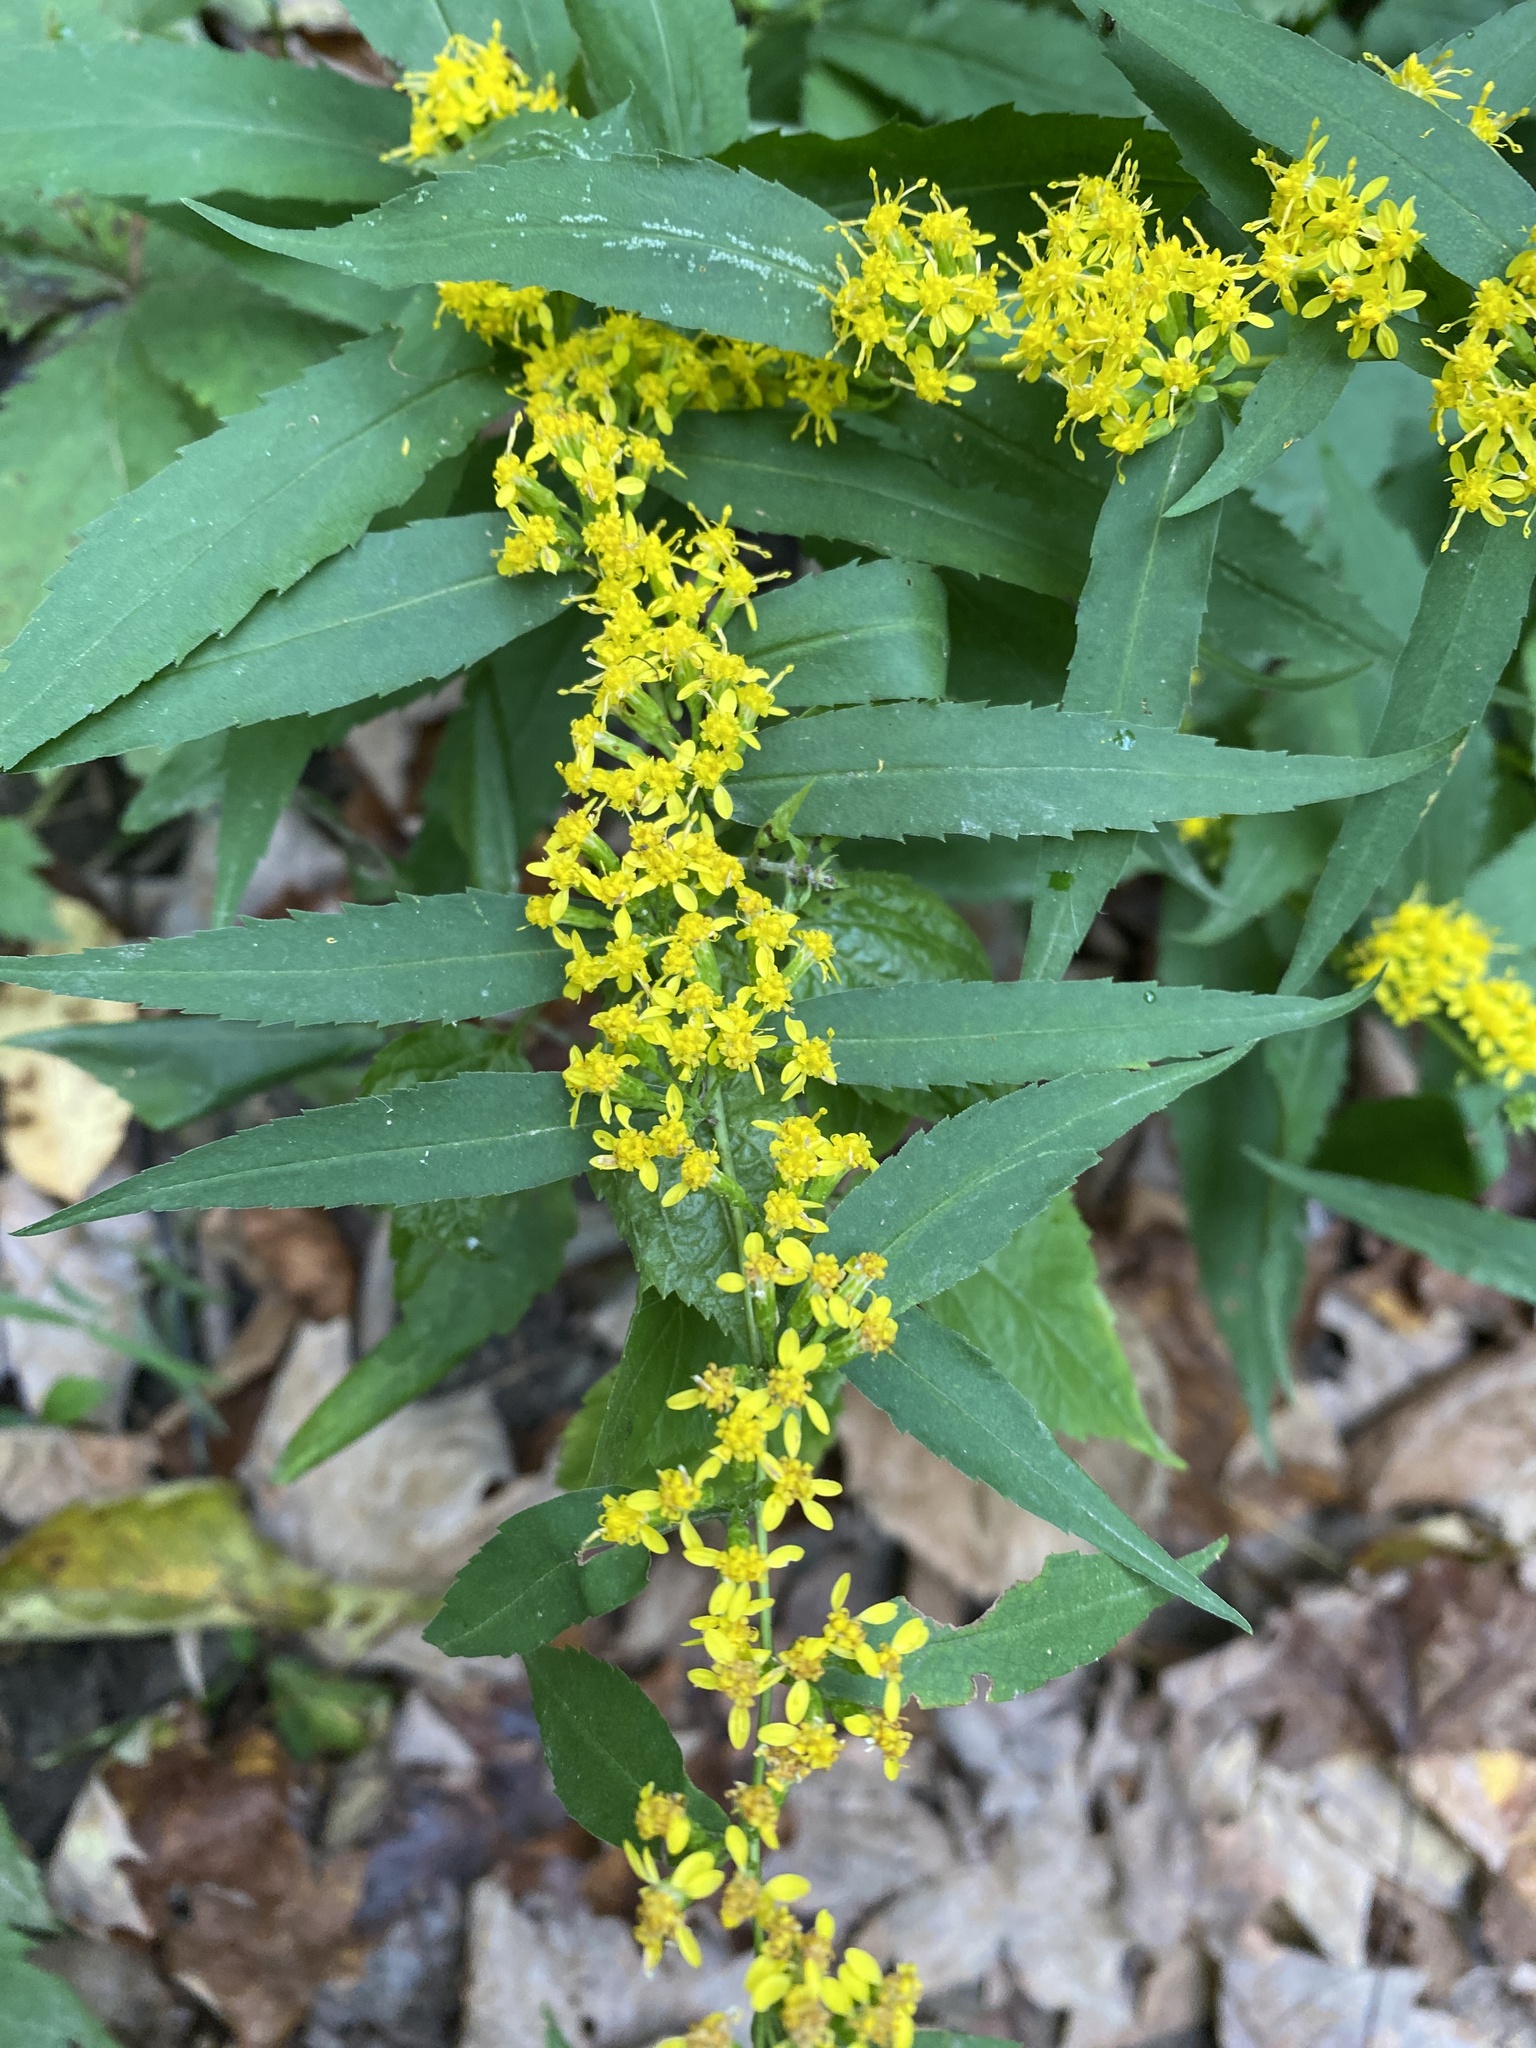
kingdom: Plantae
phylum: Tracheophyta
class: Magnoliopsida
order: Asterales
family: Asteraceae
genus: Solidago
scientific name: Solidago caesia
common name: Woodland goldenrod
